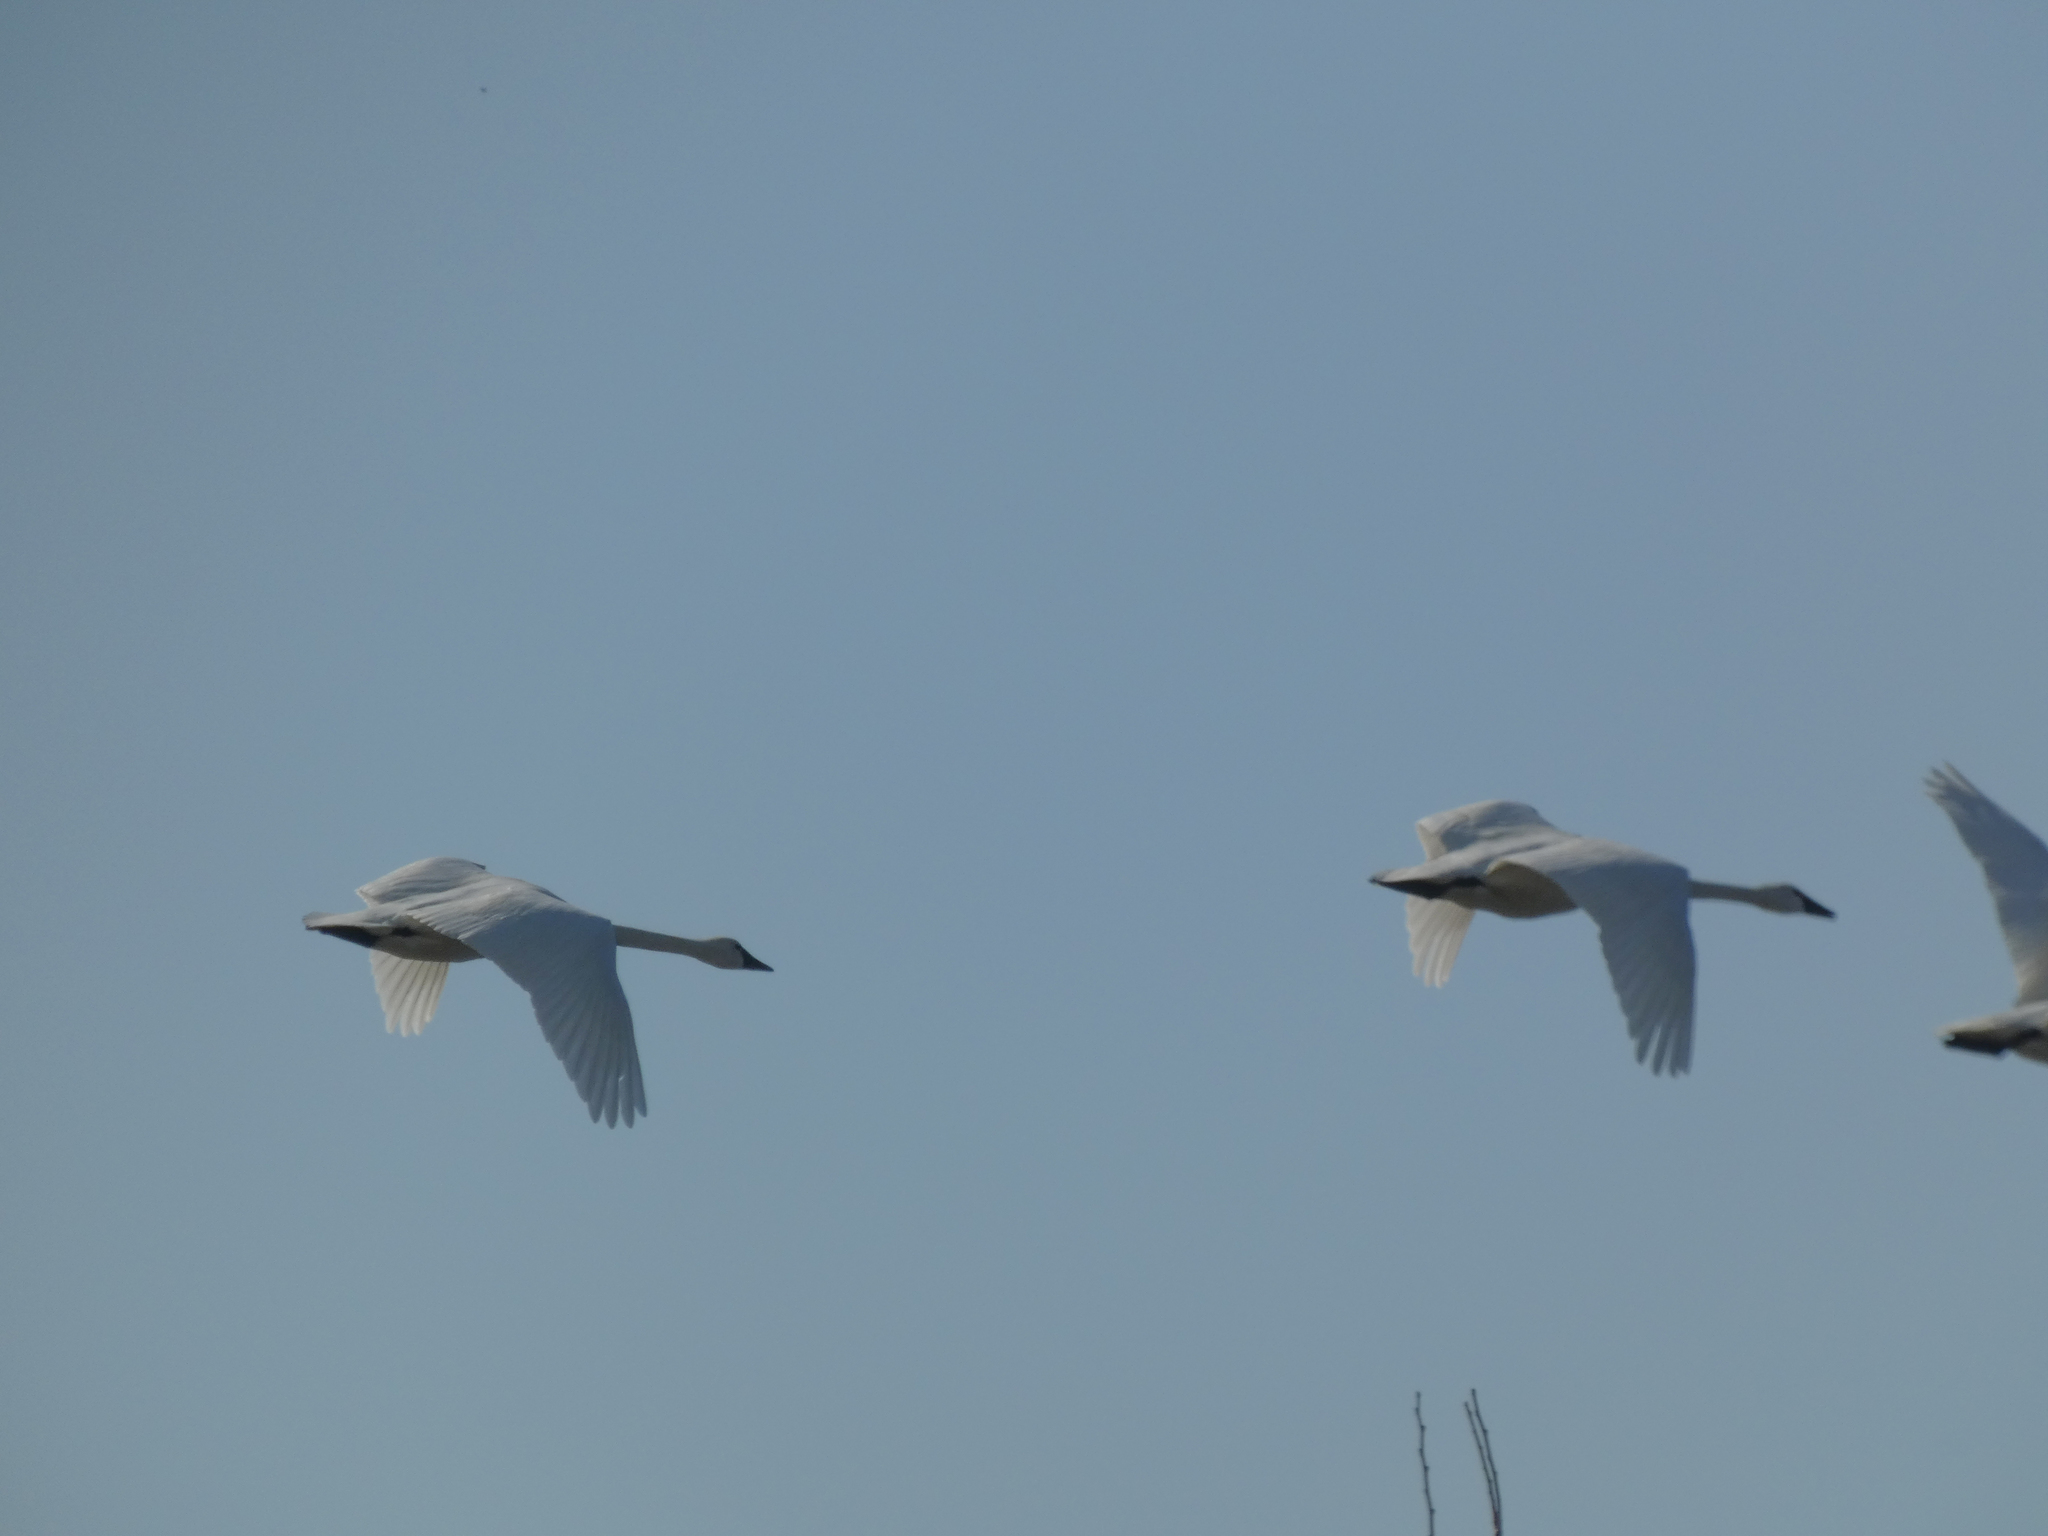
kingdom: Animalia
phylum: Chordata
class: Aves
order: Anseriformes
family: Anatidae
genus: Cygnus
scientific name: Cygnus buccinator
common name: Trumpeter swan
